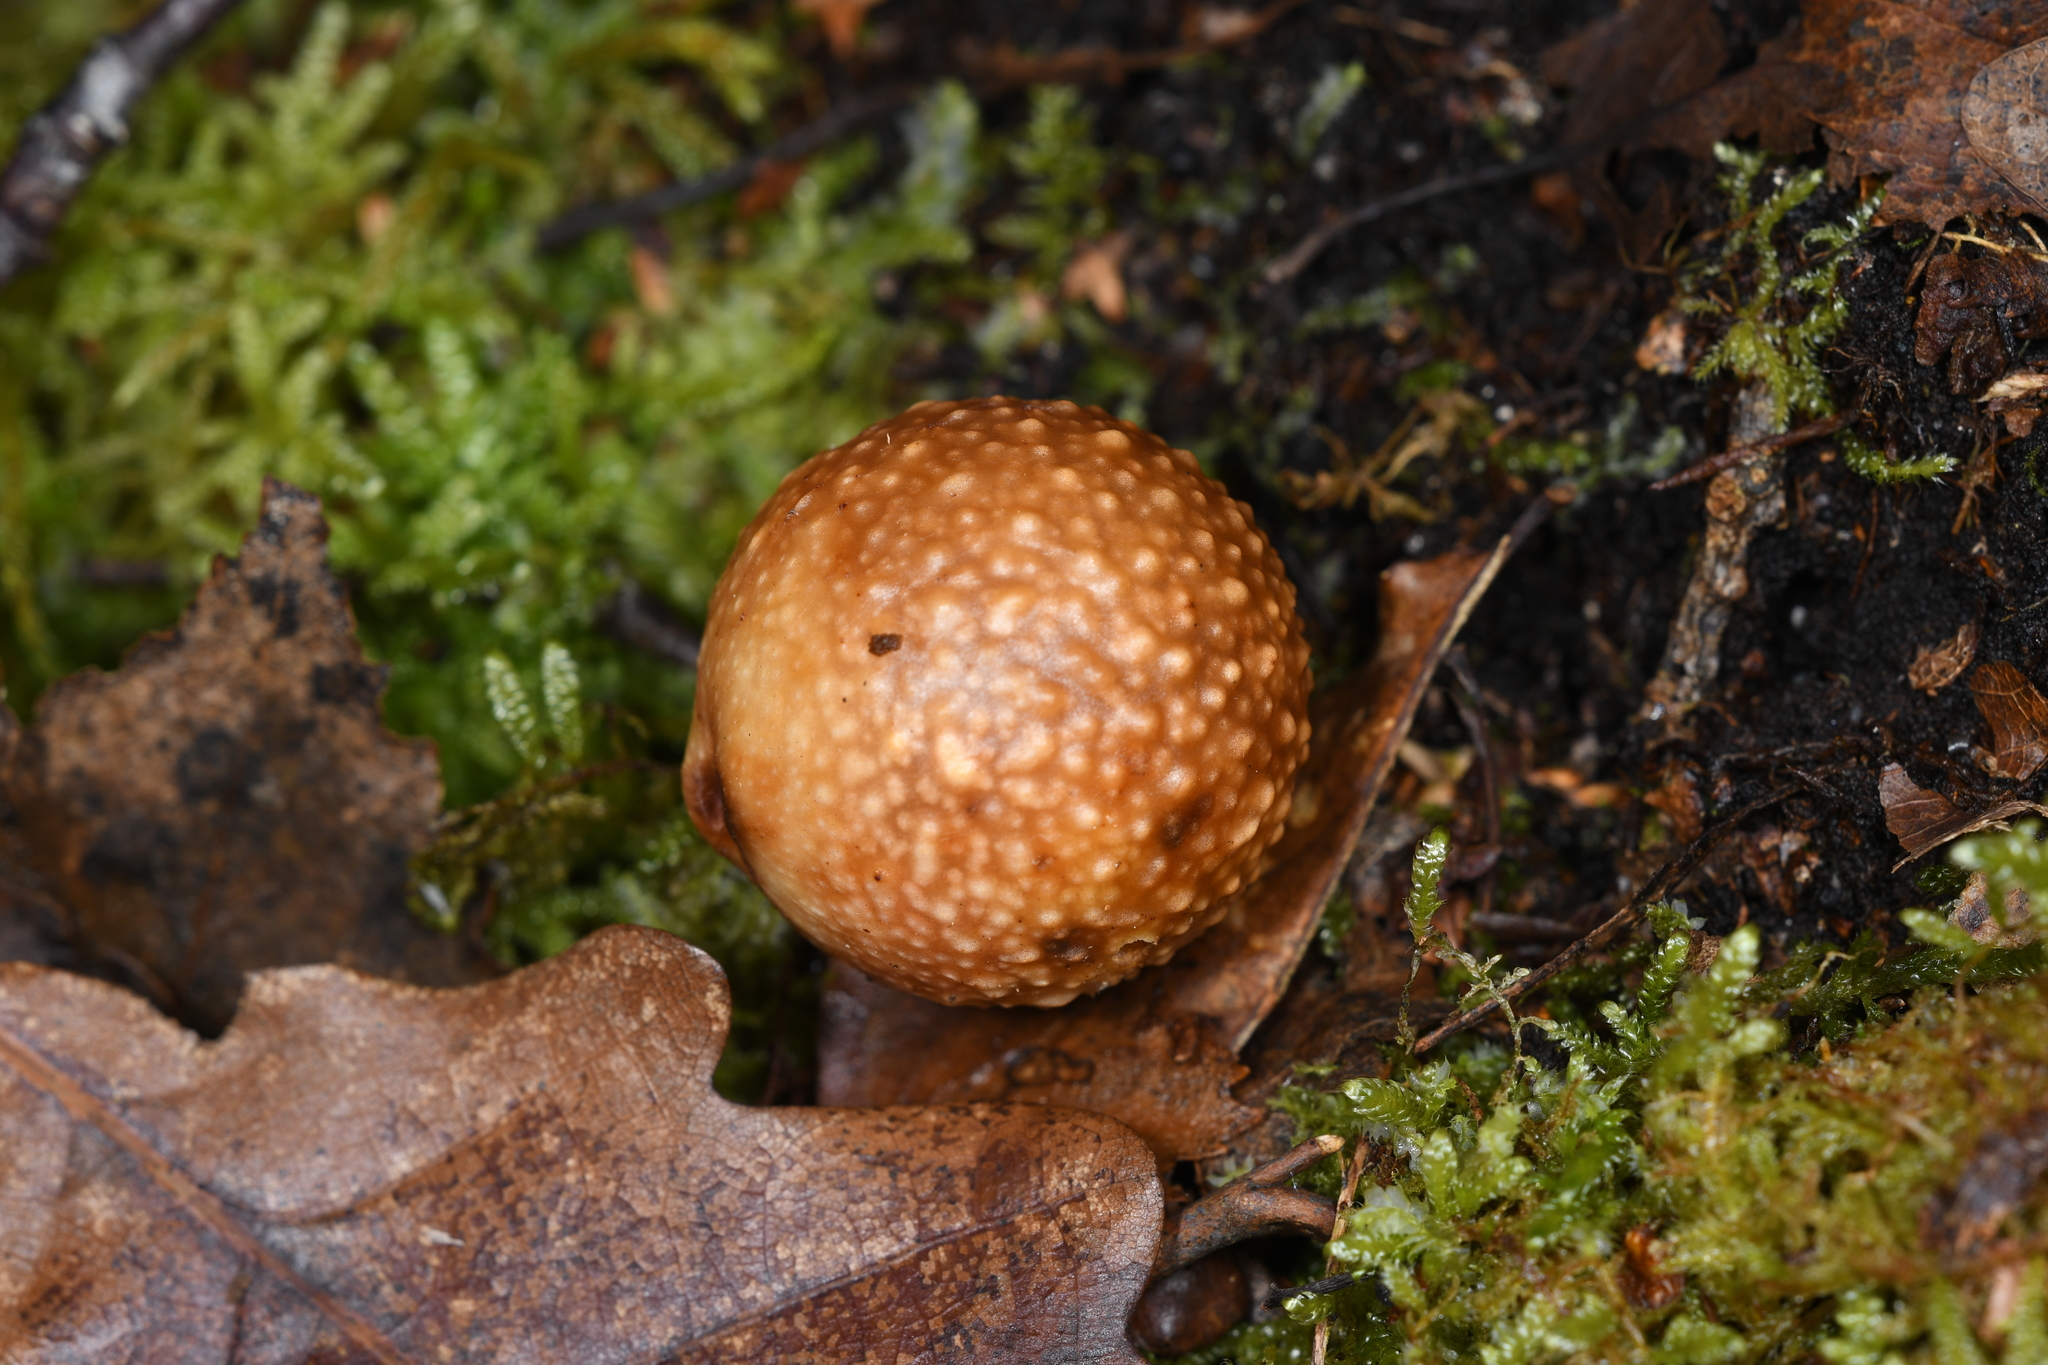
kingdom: Animalia
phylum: Arthropoda
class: Insecta
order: Hymenoptera
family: Cynipidae
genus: Cynips
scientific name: Cynips quercusfolii
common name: Cherry gall
